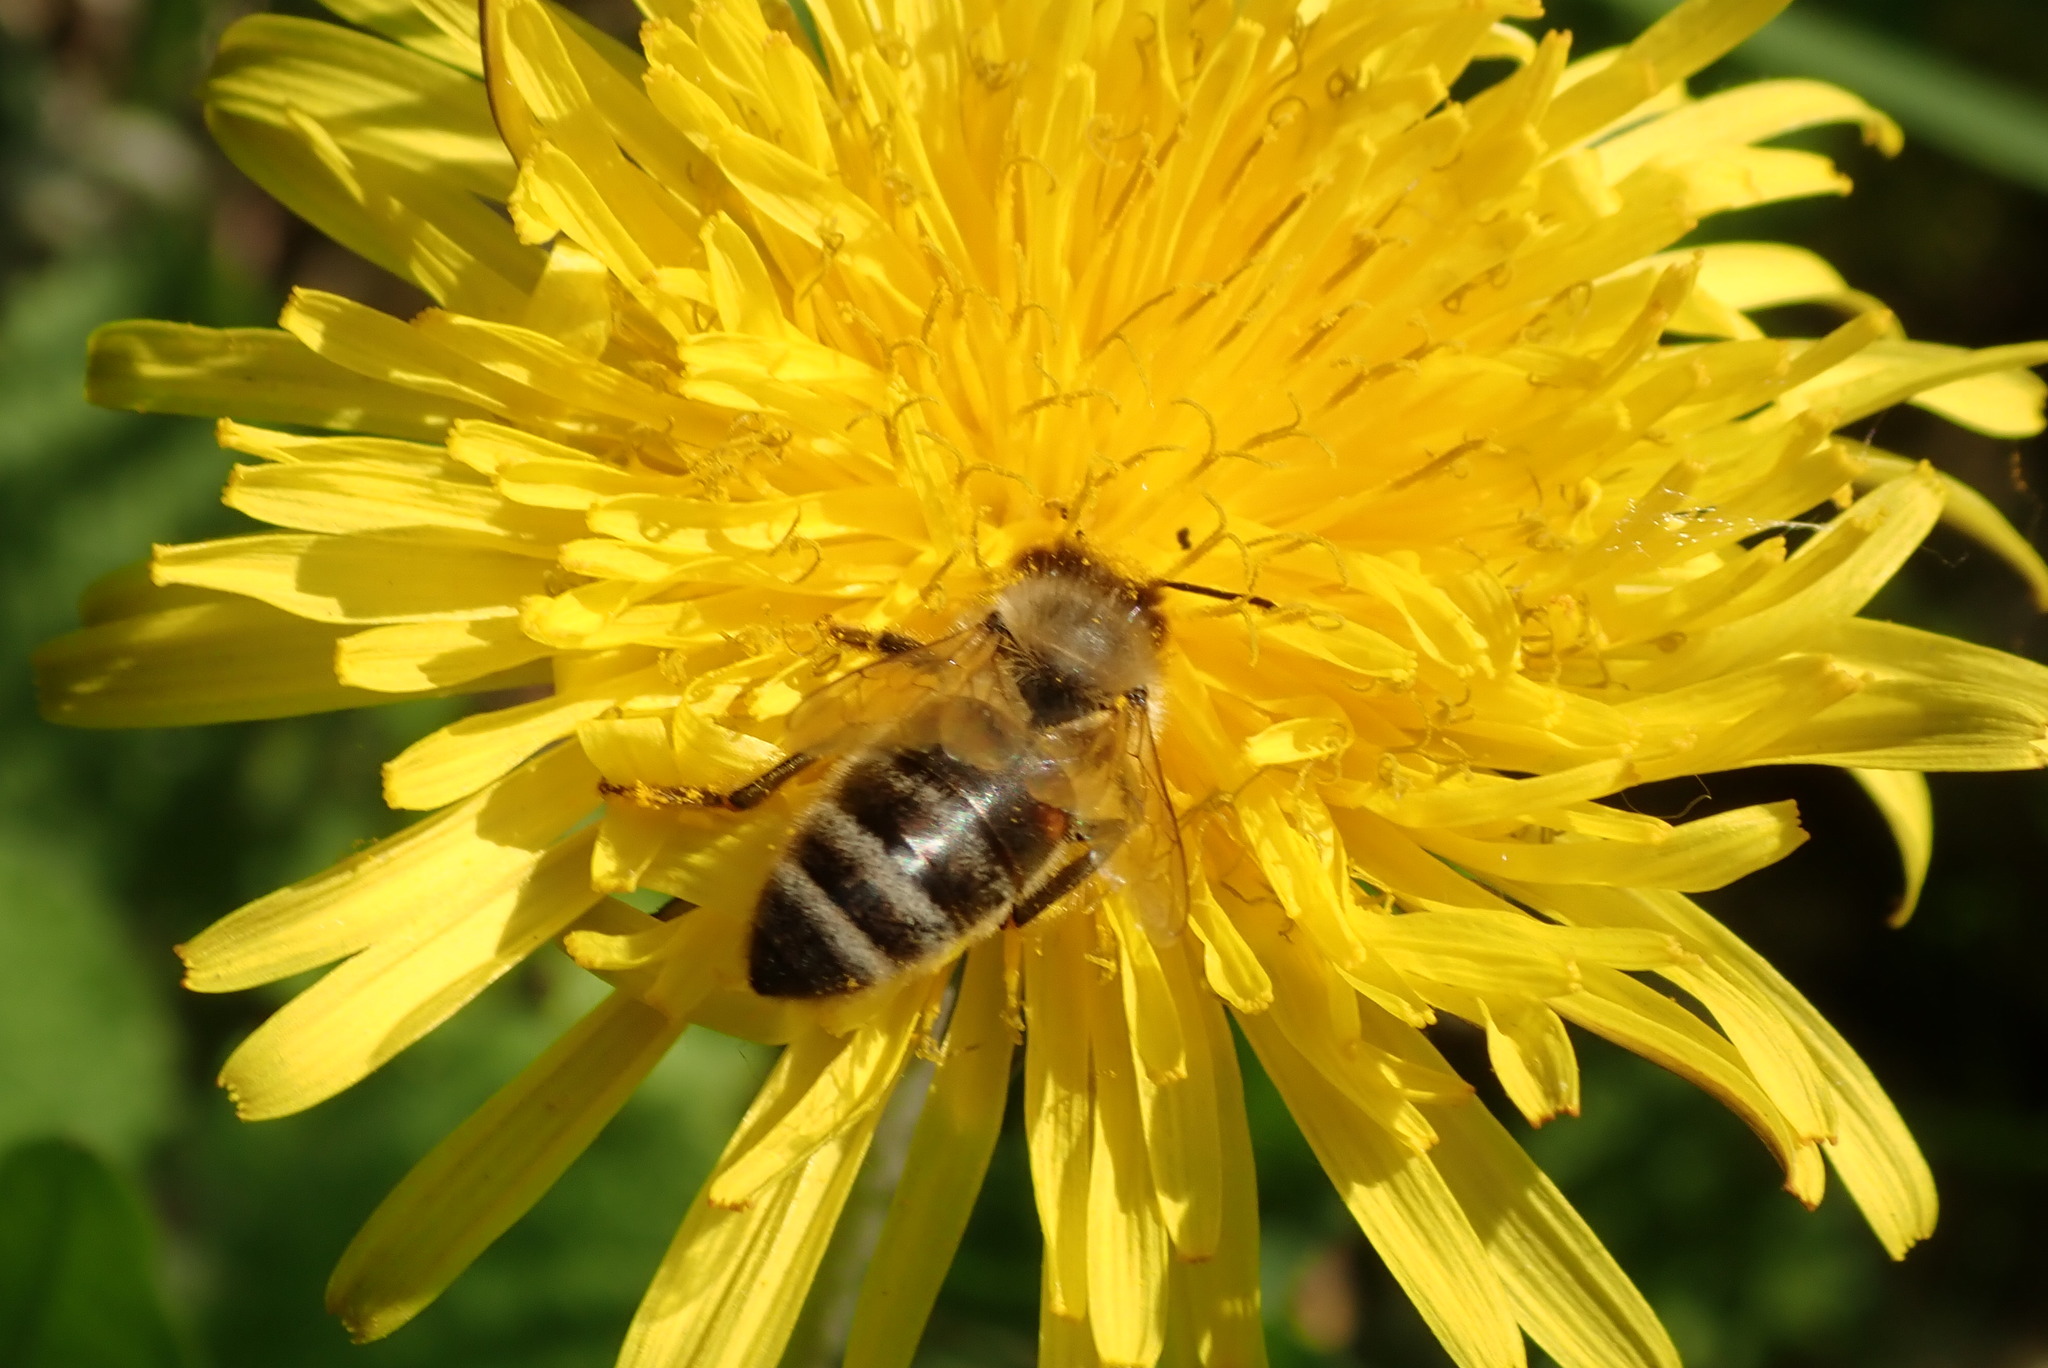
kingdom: Animalia
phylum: Arthropoda
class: Insecta
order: Hymenoptera
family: Apidae
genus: Apis
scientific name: Apis mellifera
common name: Honey bee
